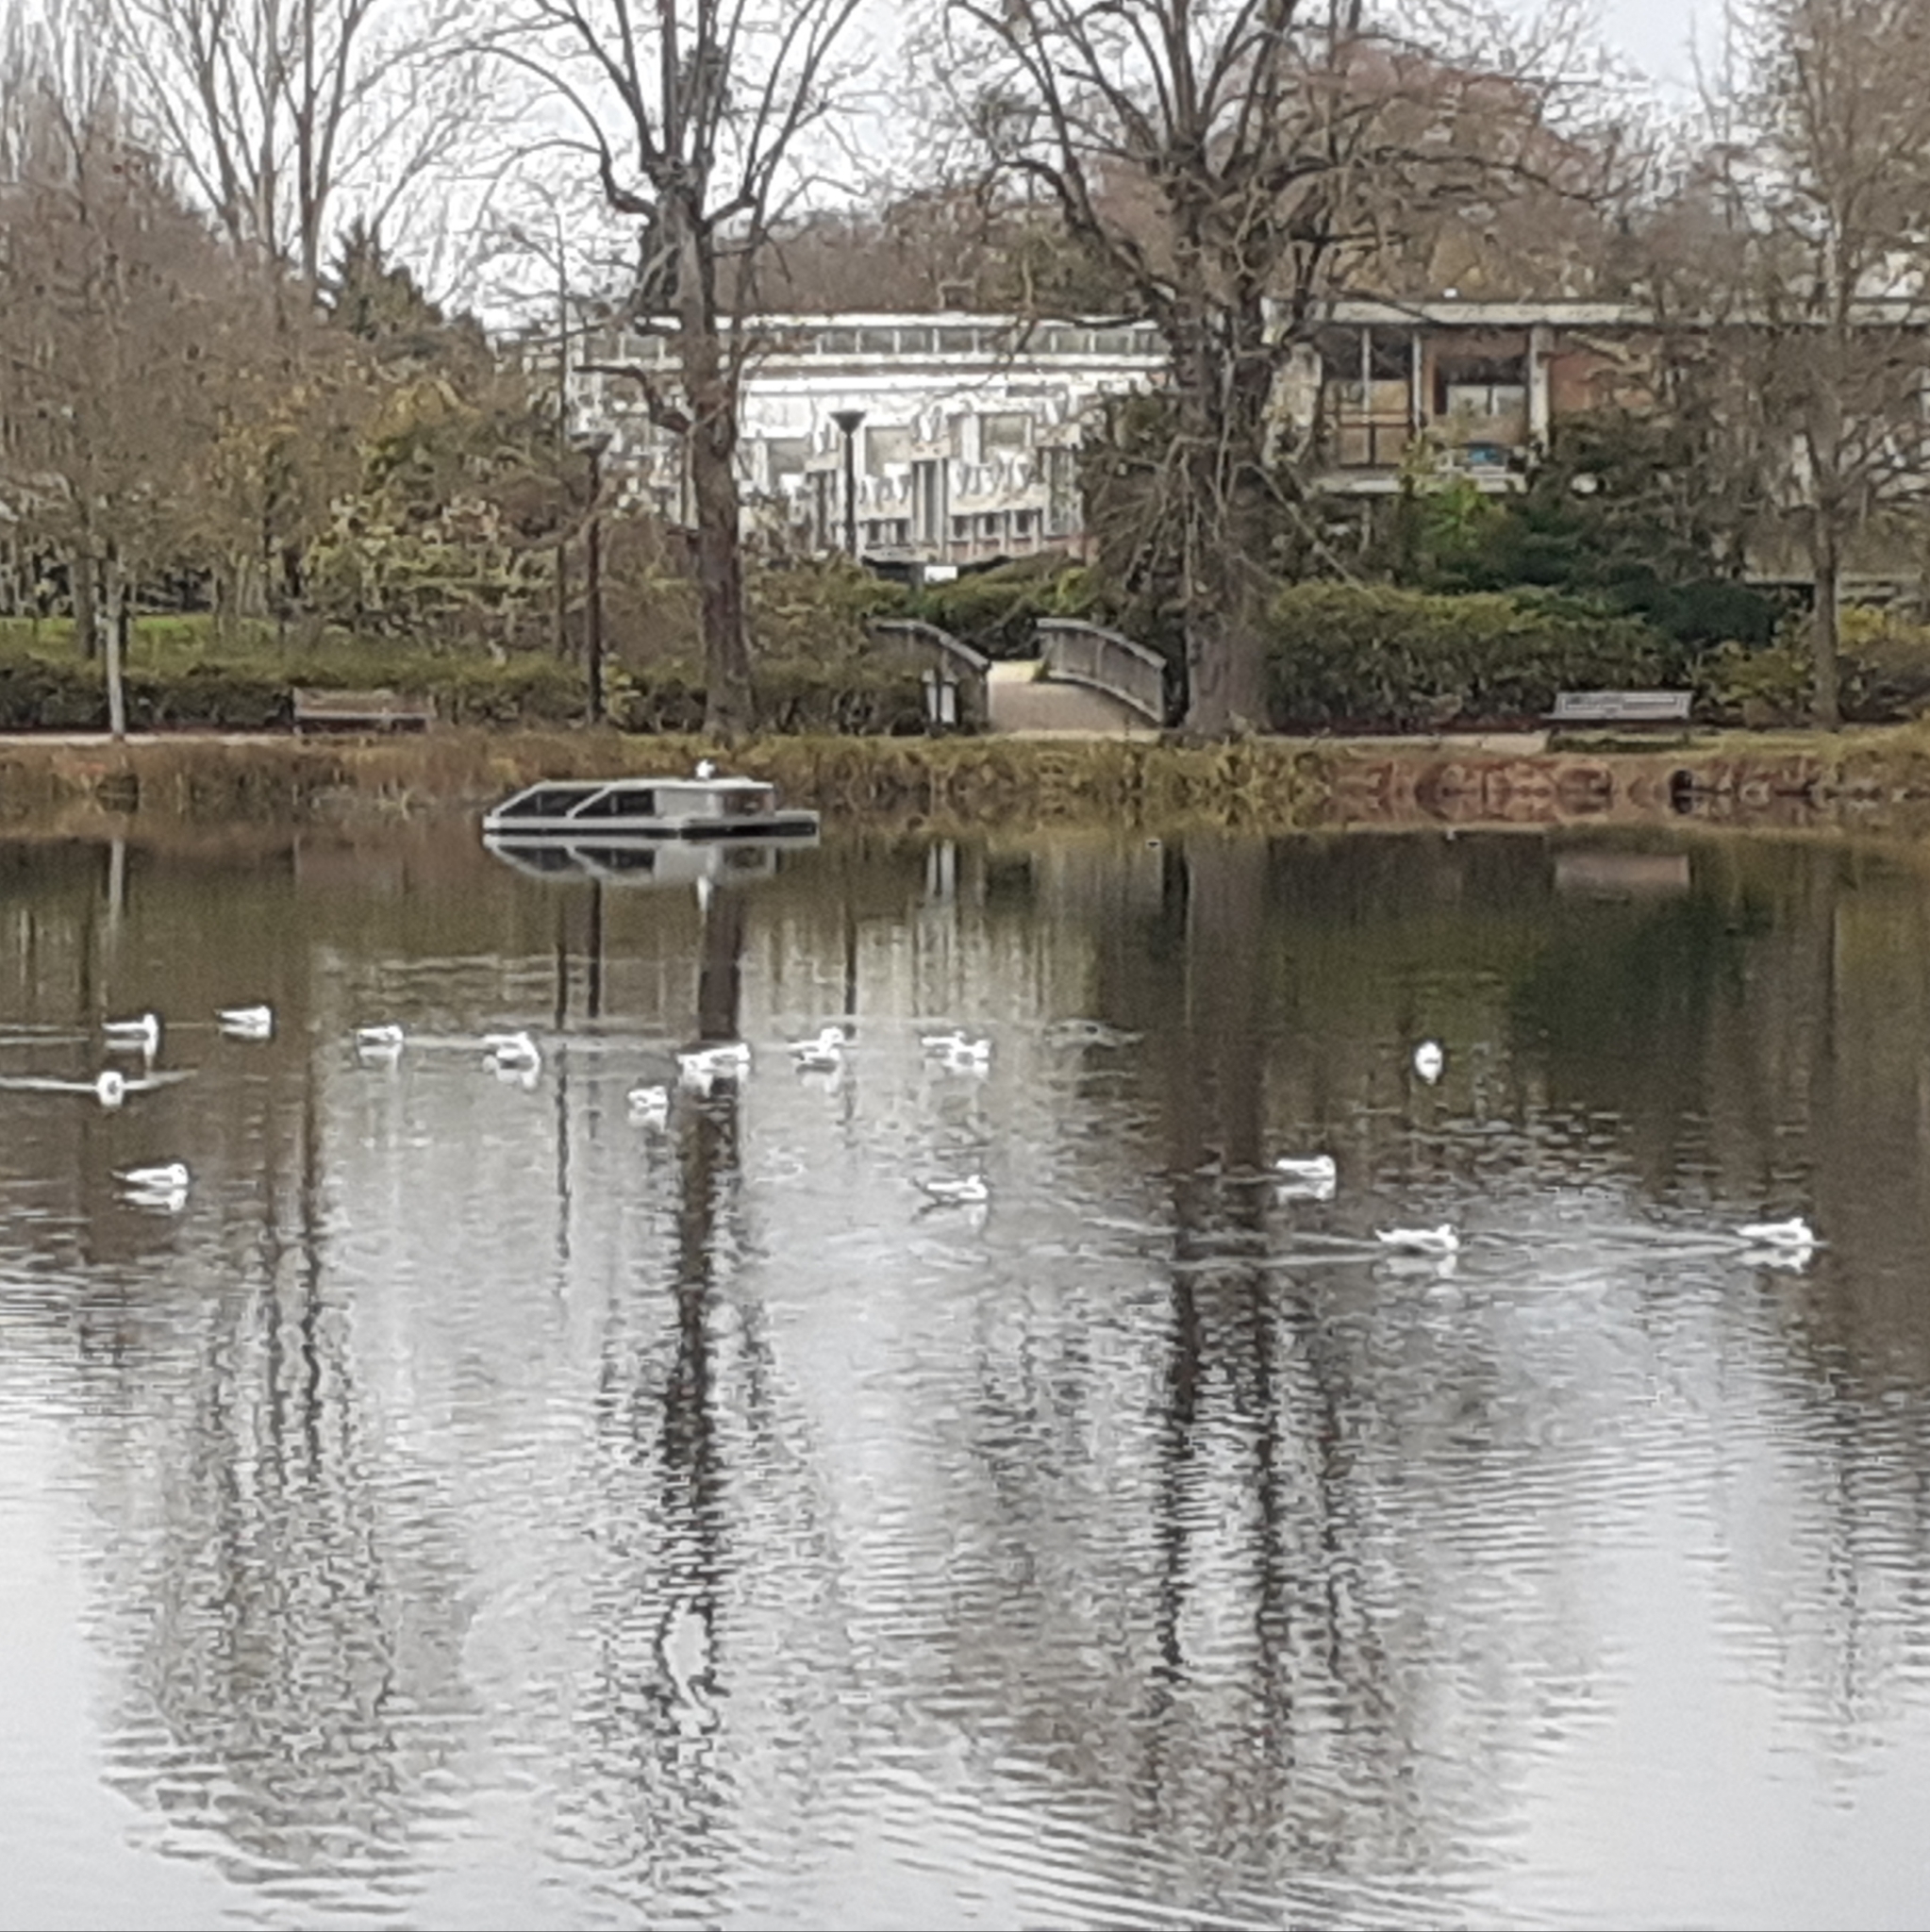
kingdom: Animalia
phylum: Chordata
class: Aves
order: Charadriiformes
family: Laridae
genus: Chroicocephalus
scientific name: Chroicocephalus ridibundus
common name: Black-headed gull
